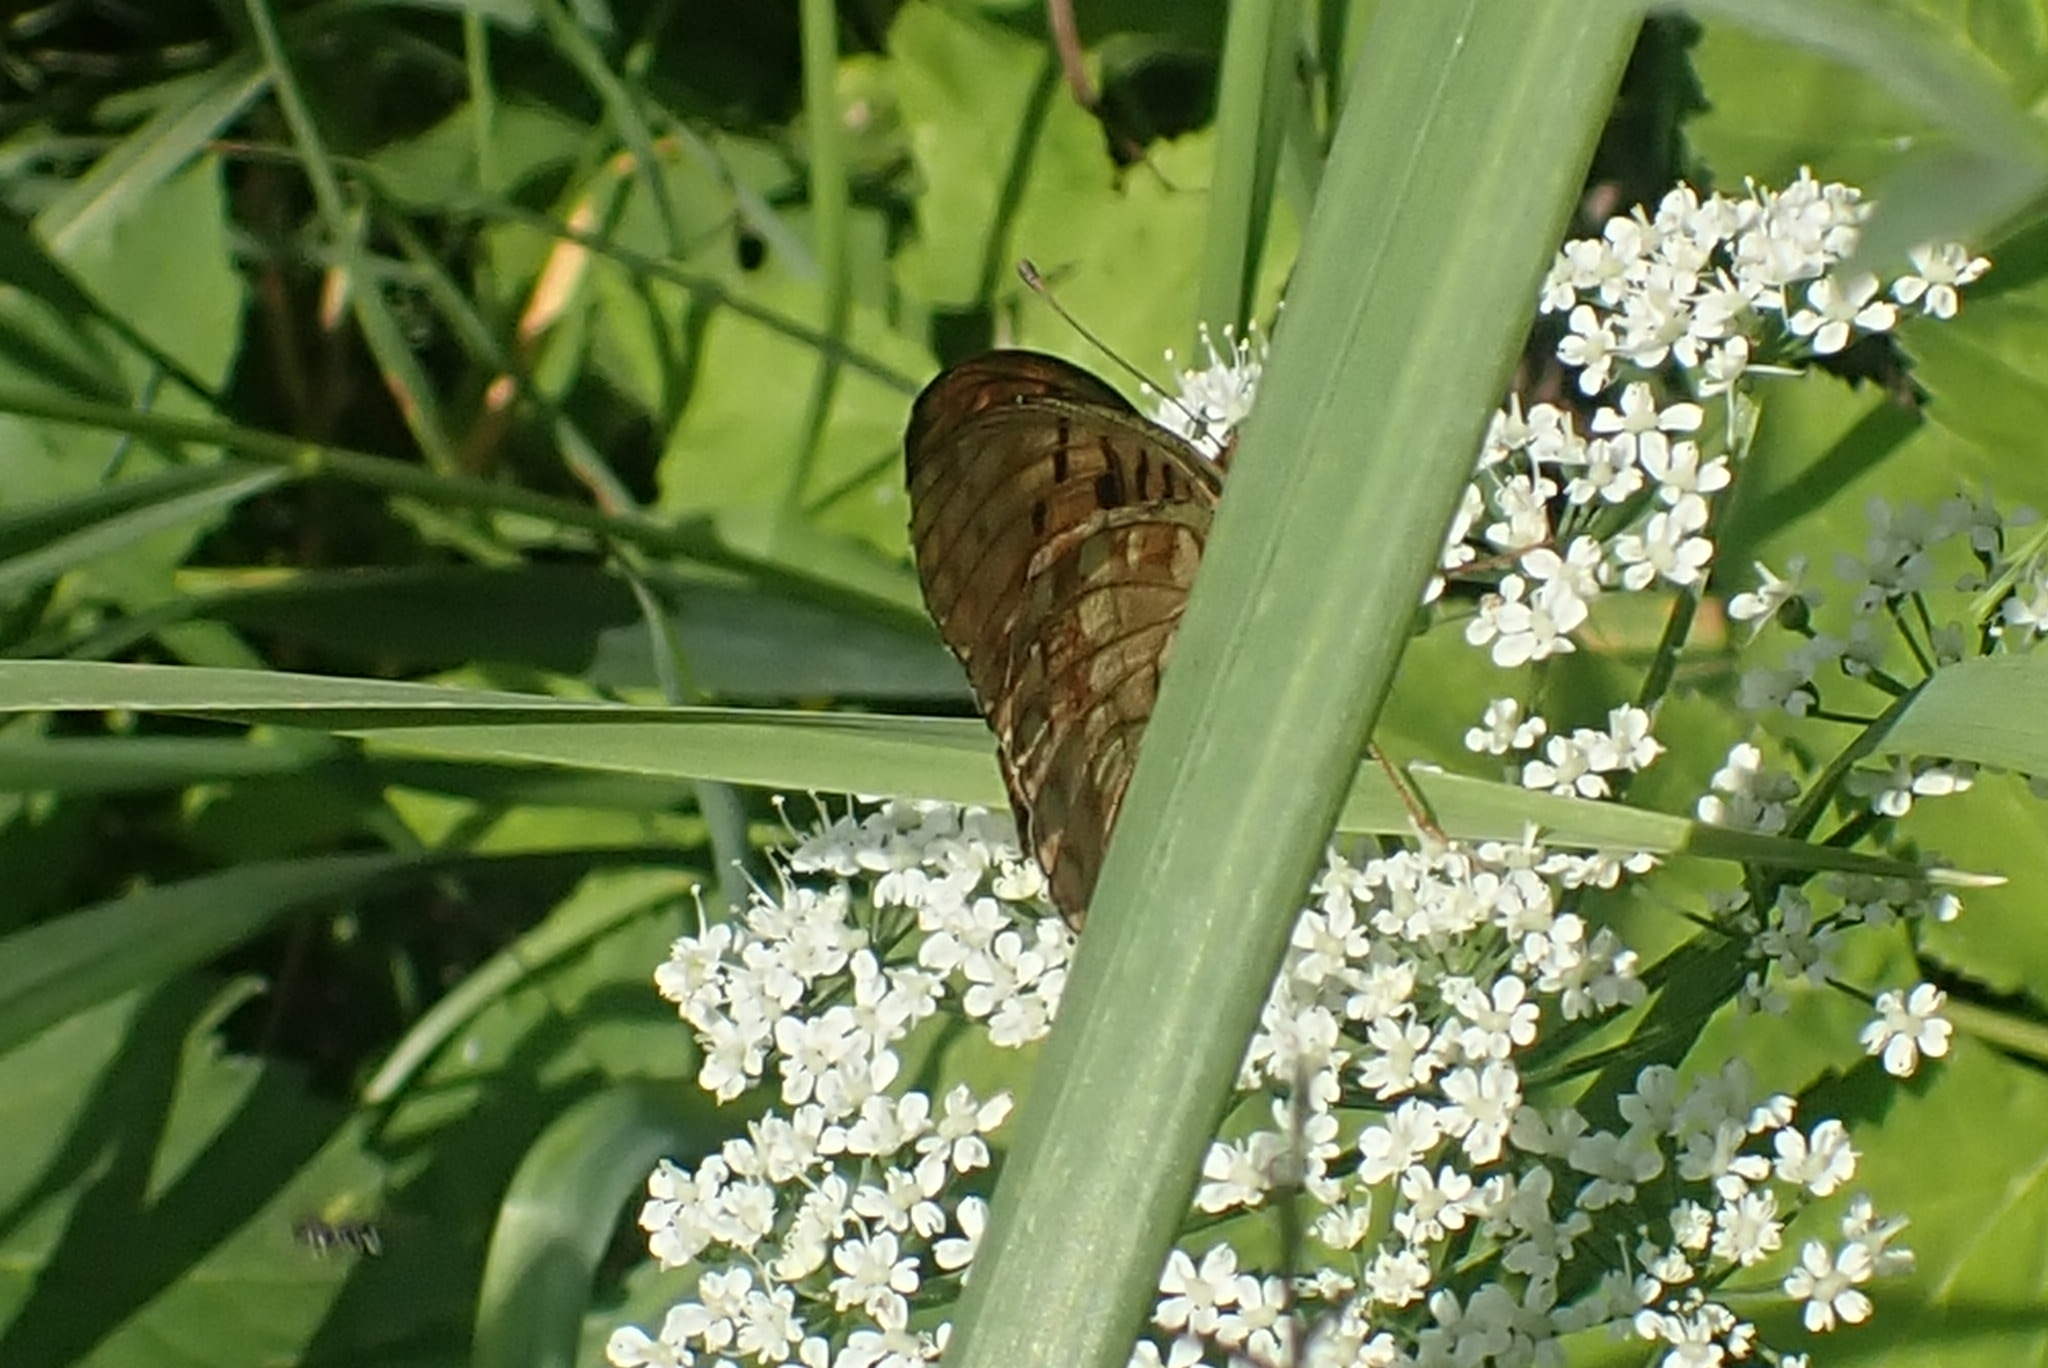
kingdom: Animalia
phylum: Arthropoda
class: Insecta
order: Lepidoptera
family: Nymphalidae
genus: Fabriciana
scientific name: Fabriciana adippe
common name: High brown fritillary
